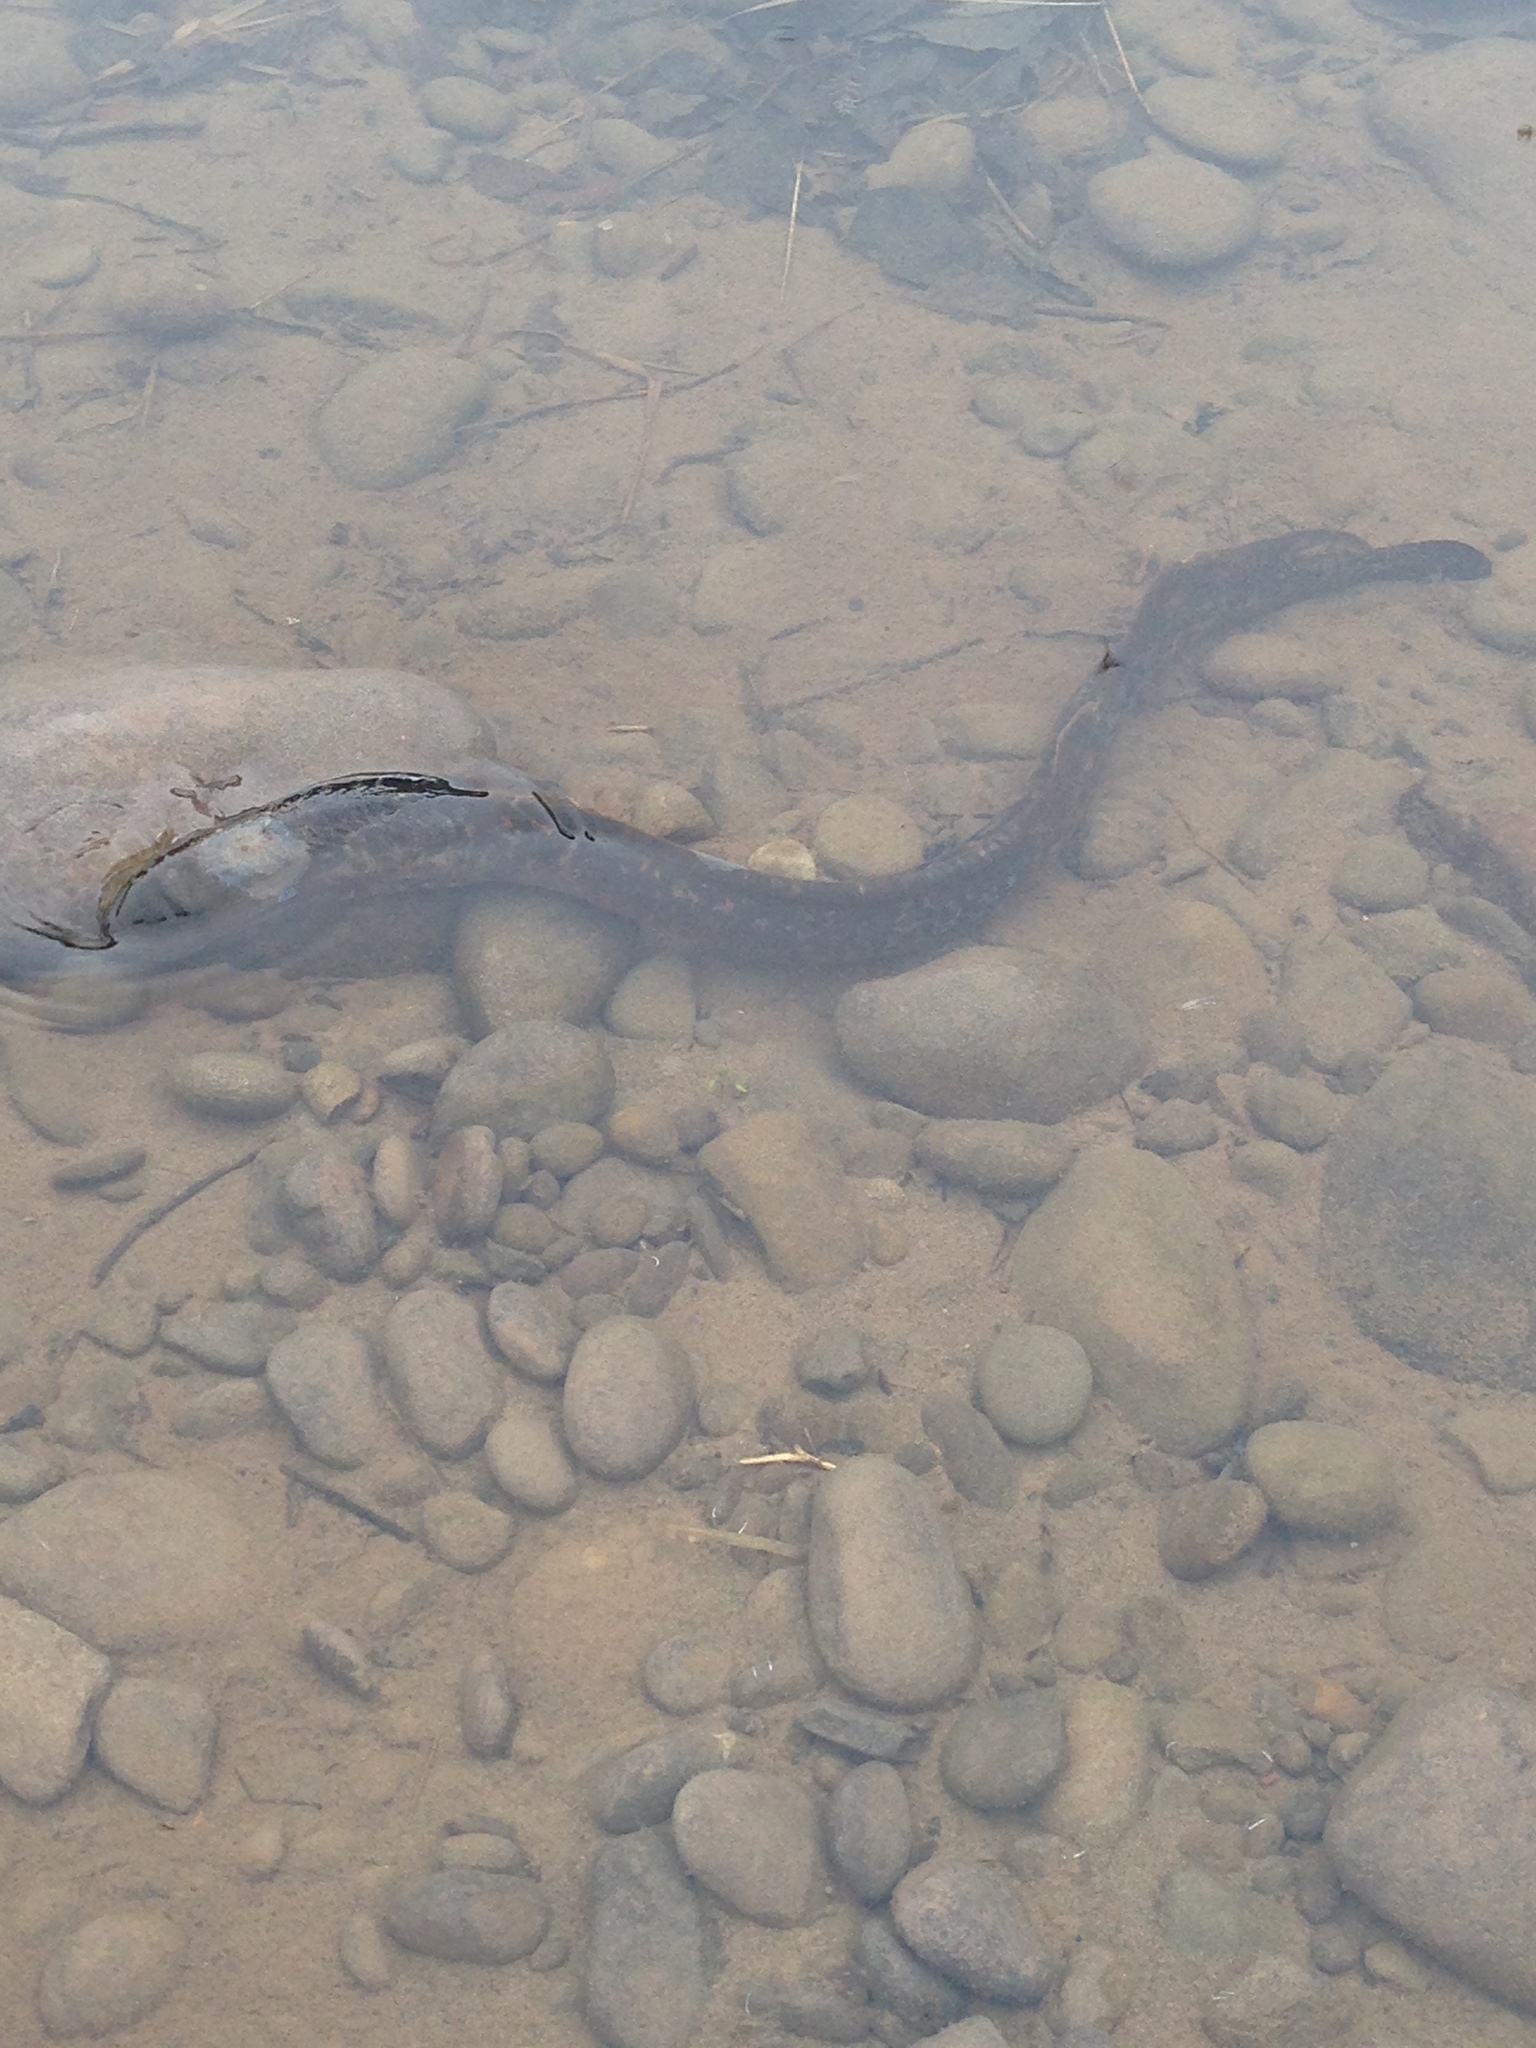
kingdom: Animalia
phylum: Chordata
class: Petromyzonti
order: Petromyzontiformes
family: Petromyzontidae
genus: Petromyzon
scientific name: Petromyzon marinus
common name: Sea lamprey
